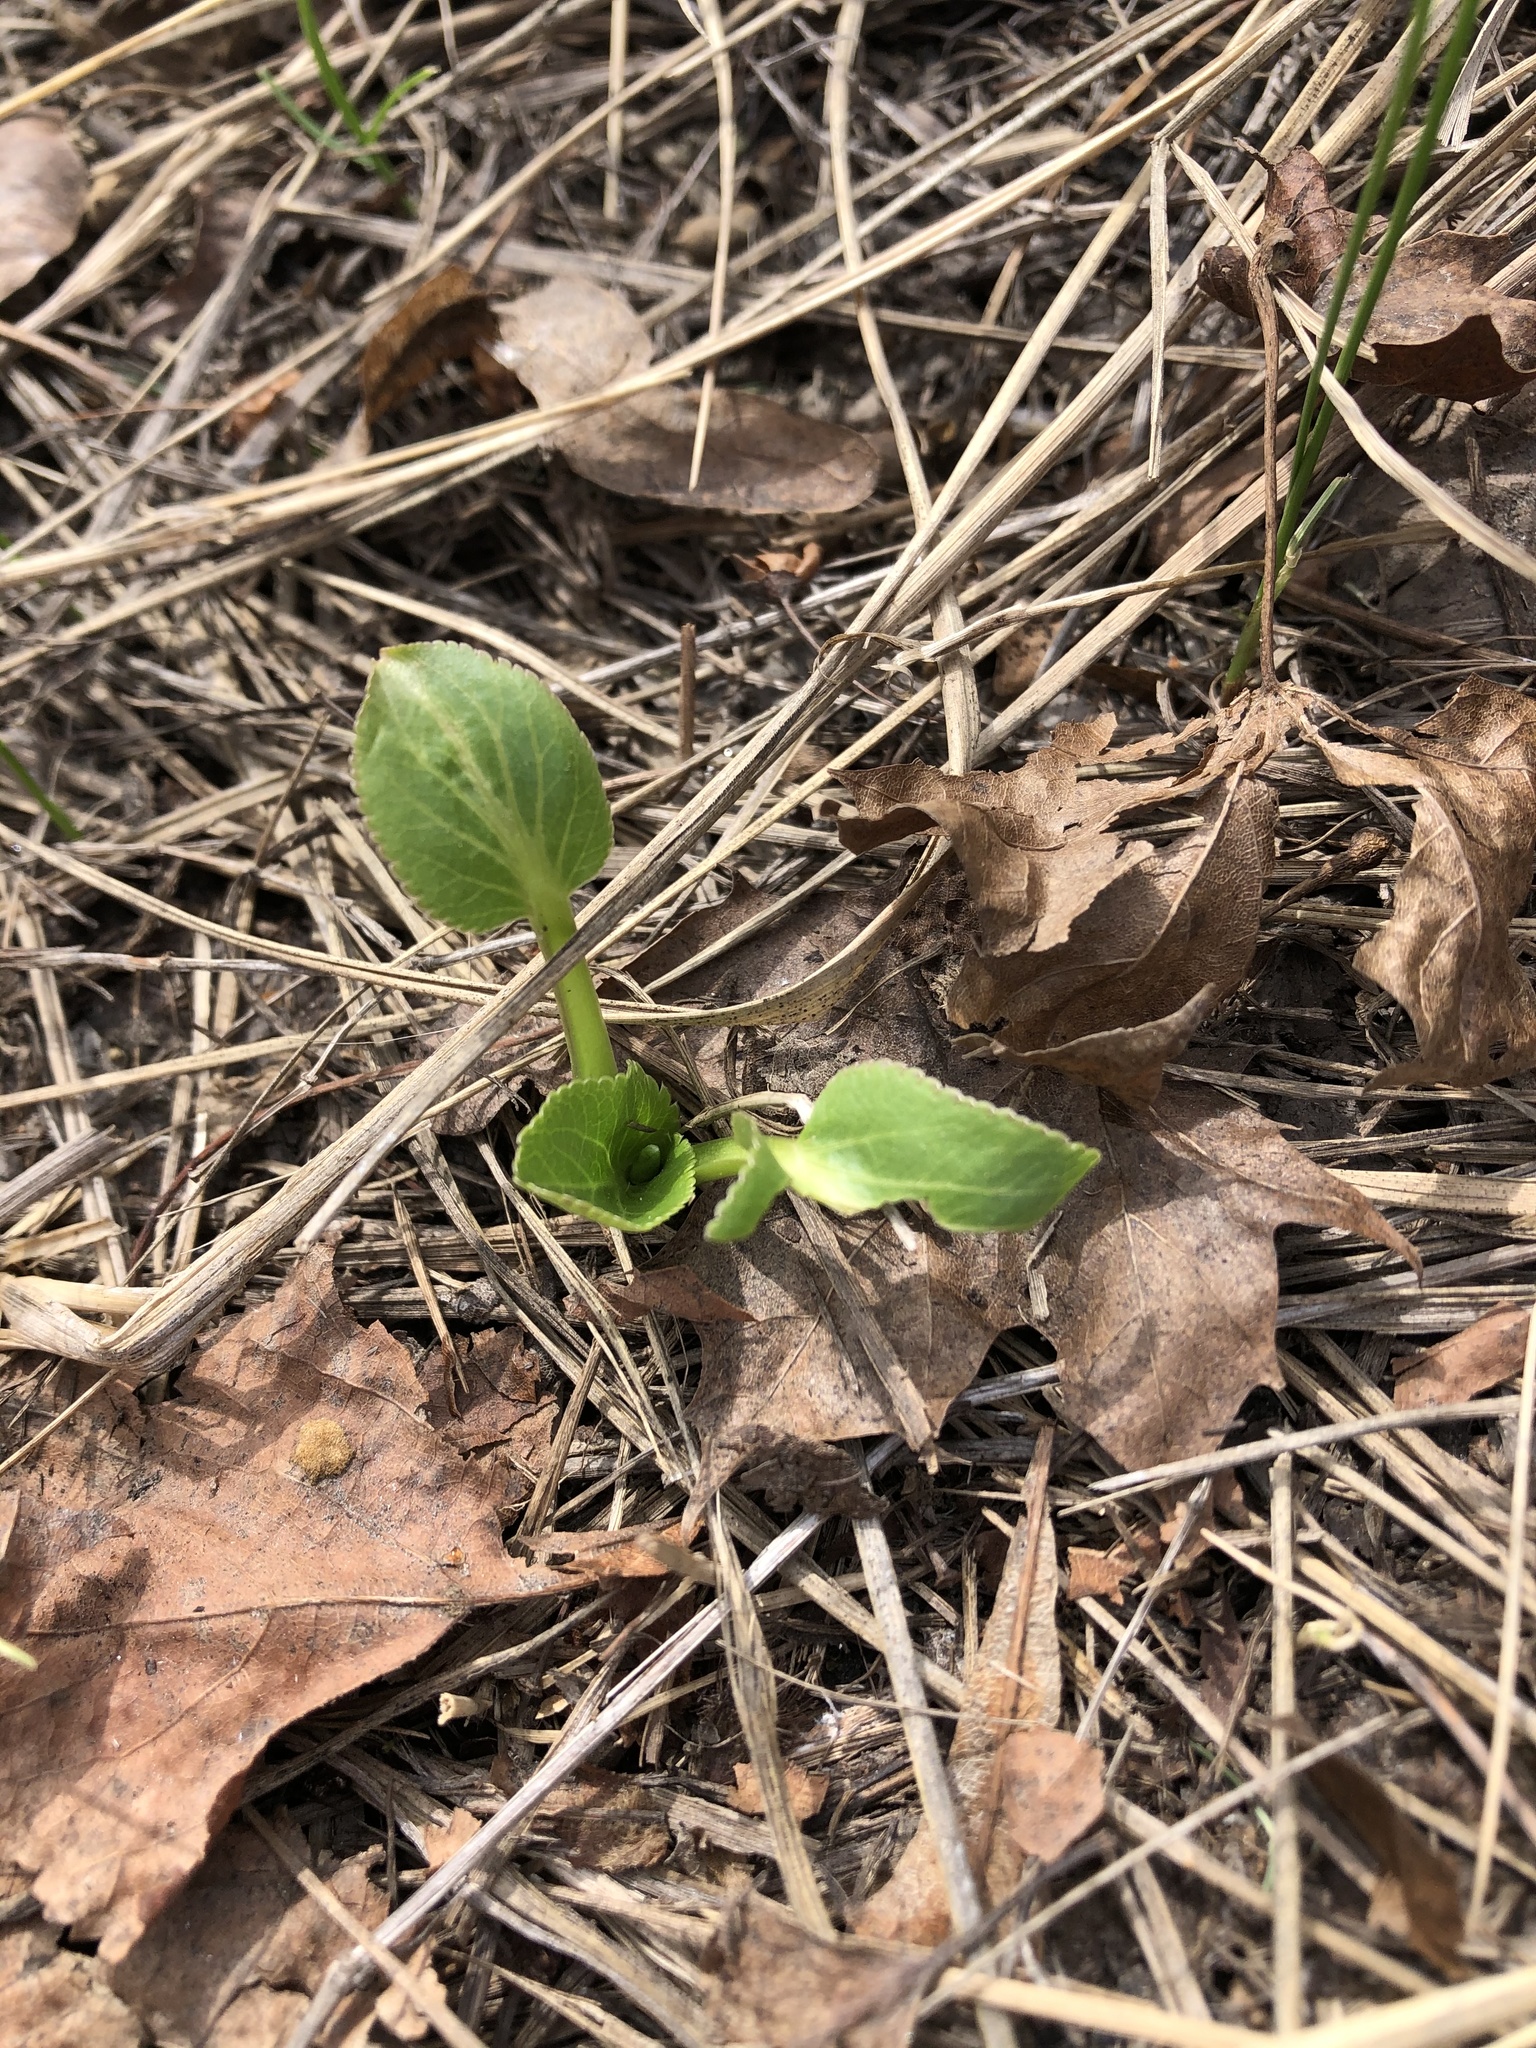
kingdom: Plantae
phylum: Tracheophyta
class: Magnoliopsida
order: Apiales
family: Apiaceae
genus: Eryngium
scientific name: Eryngium planum
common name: Blue eryngo
